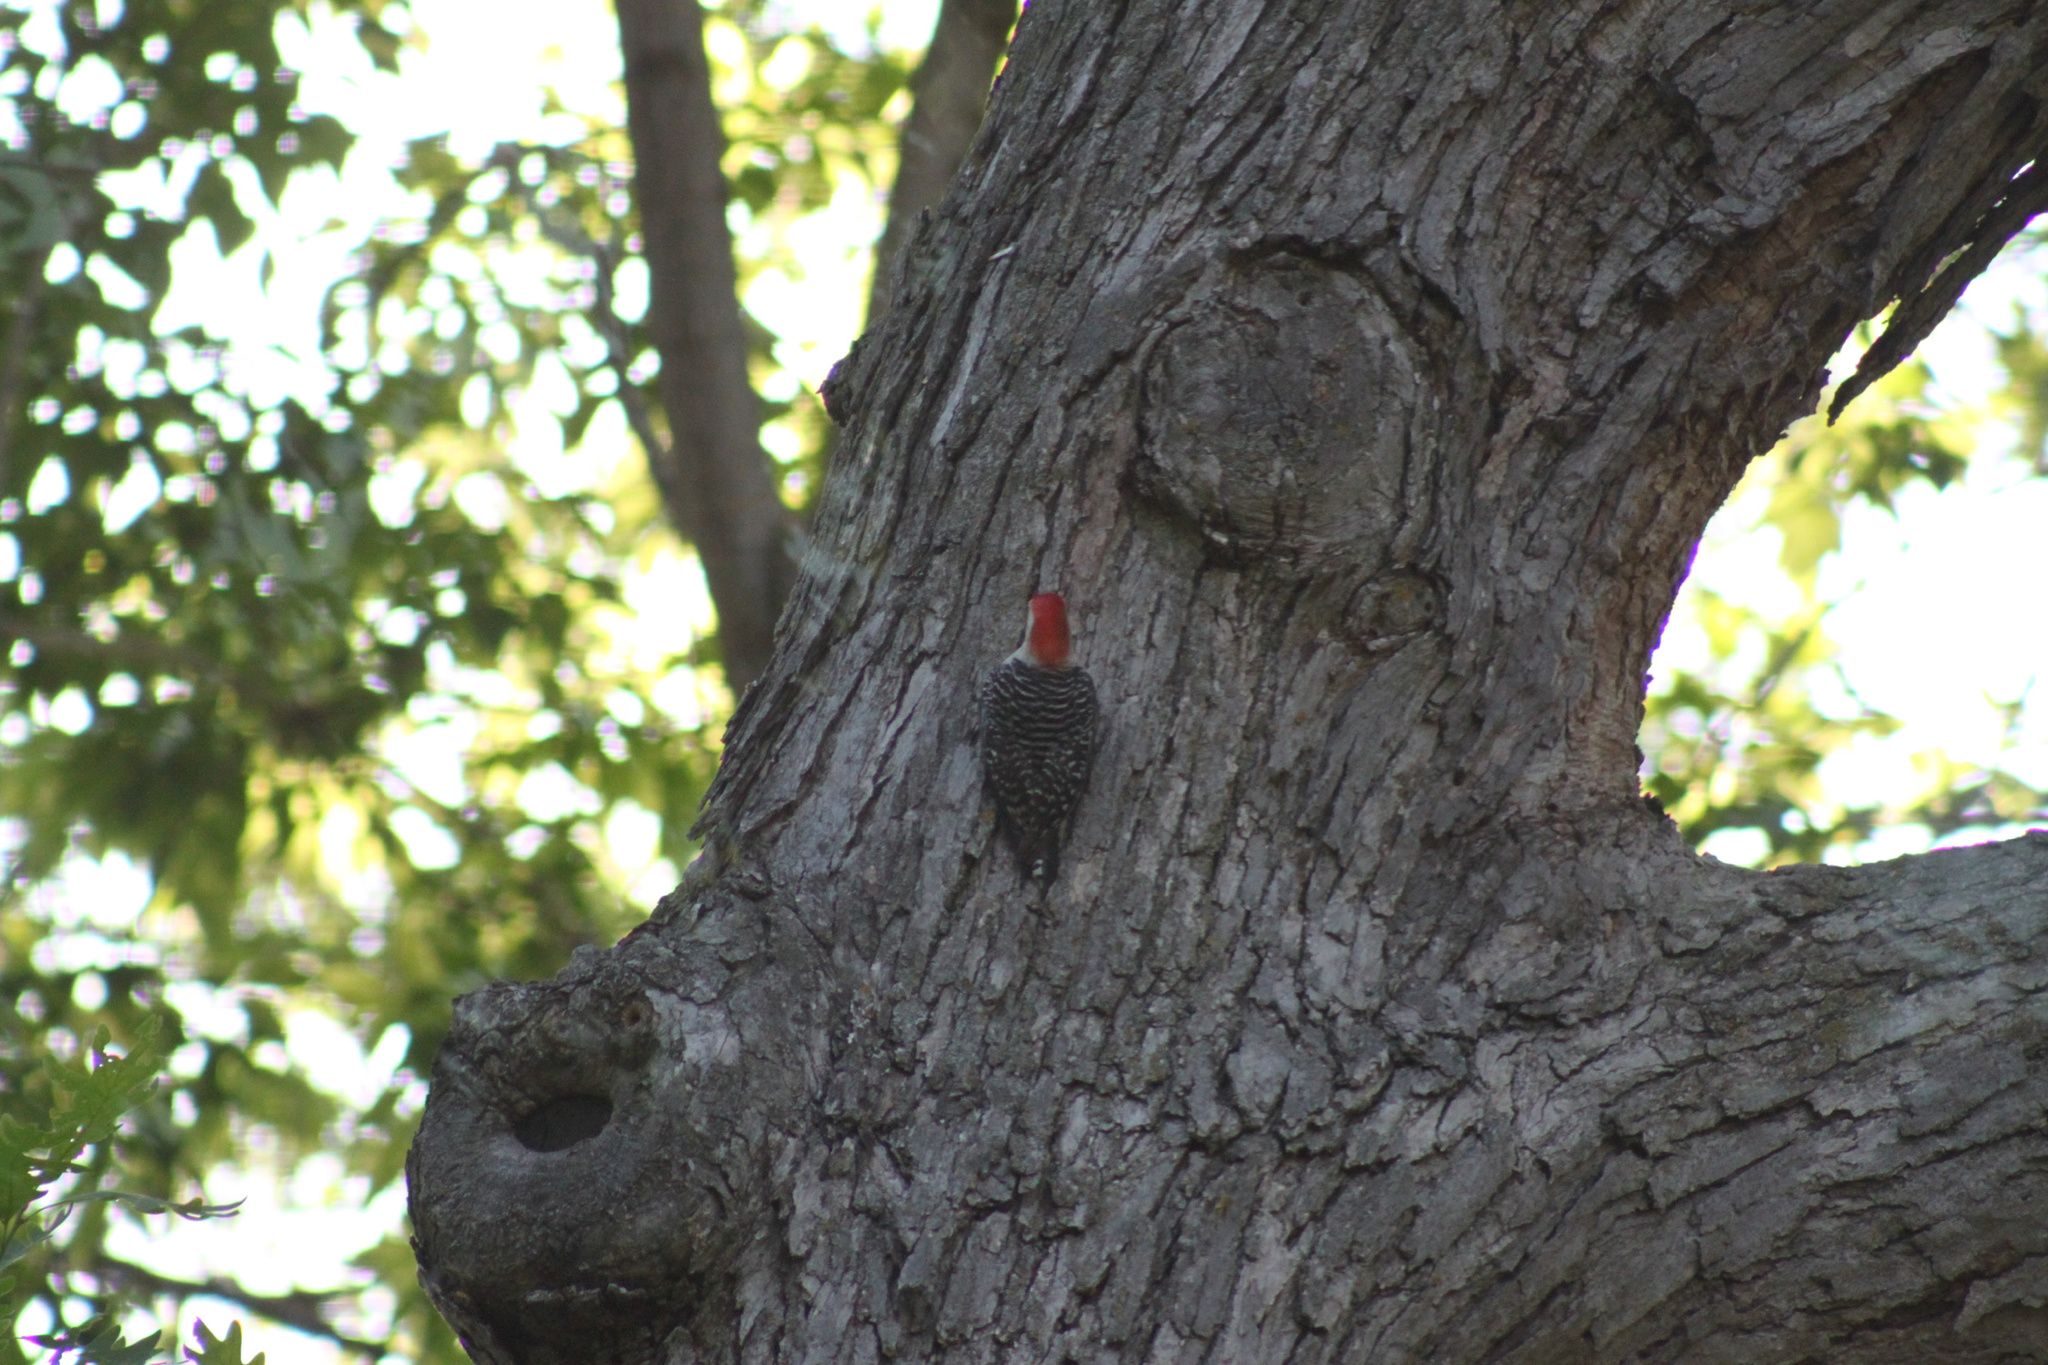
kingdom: Animalia
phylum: Chordata
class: Aves
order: Piciformes
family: Picidae
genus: Melanerpes
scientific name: Melanerpes carolinus
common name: Red-bellied woodpecker
